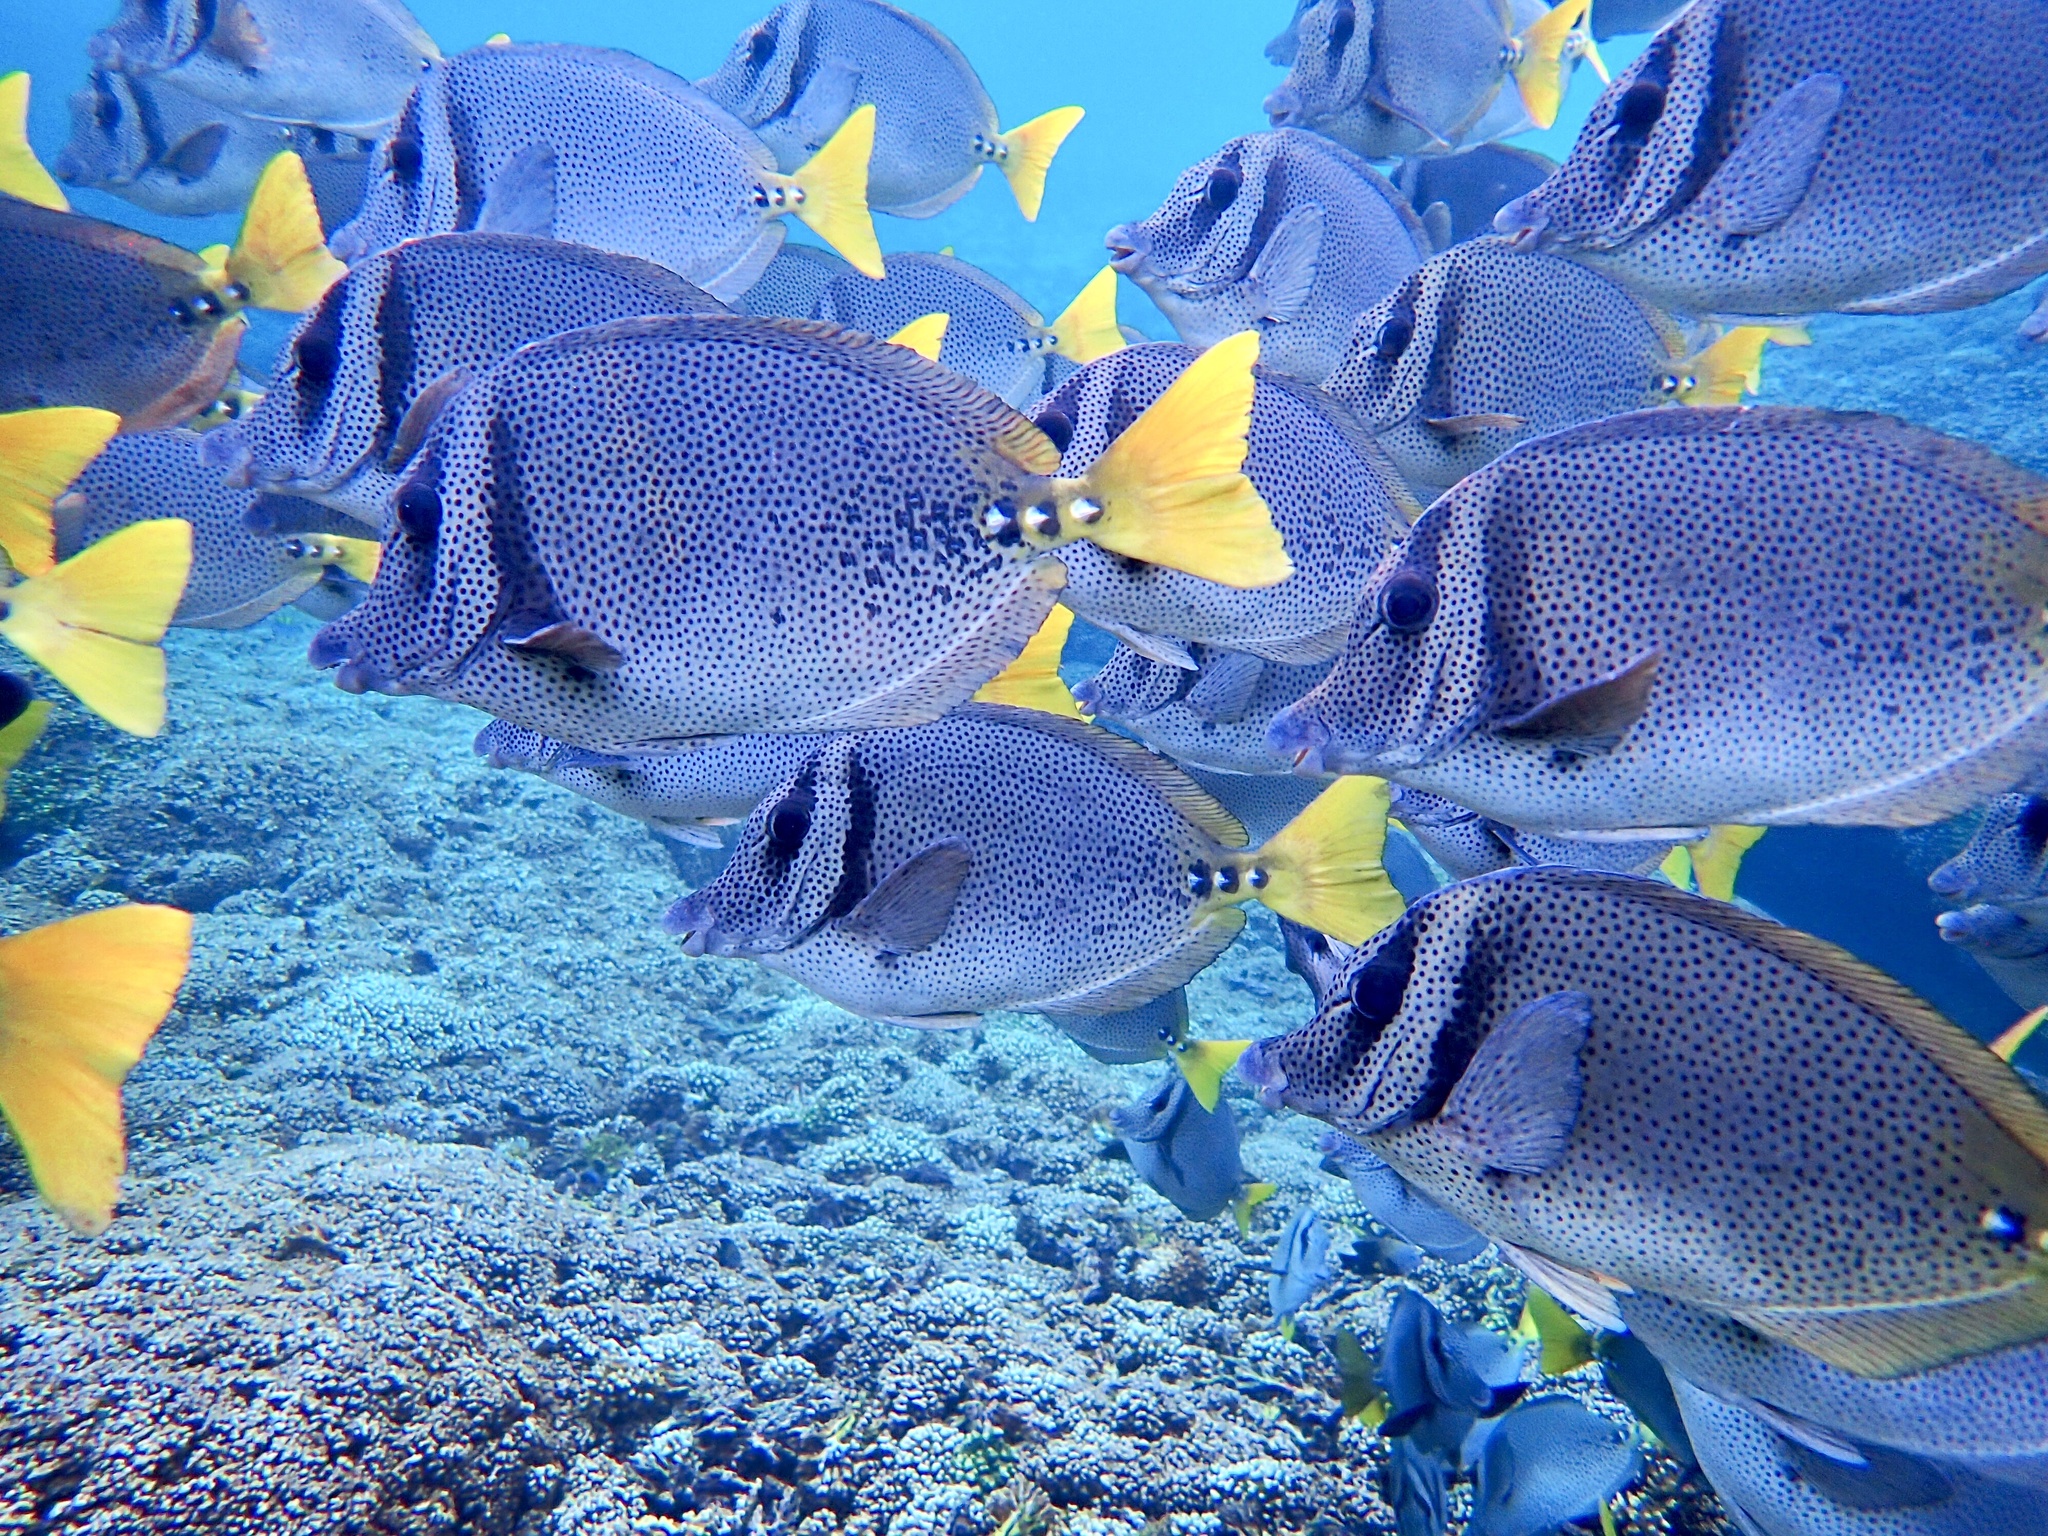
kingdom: Animalia
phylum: Chordata
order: Perciformes
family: Acanthuridae
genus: Prionurus
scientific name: Prionurus laticlavius
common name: Razor surgeonfish
